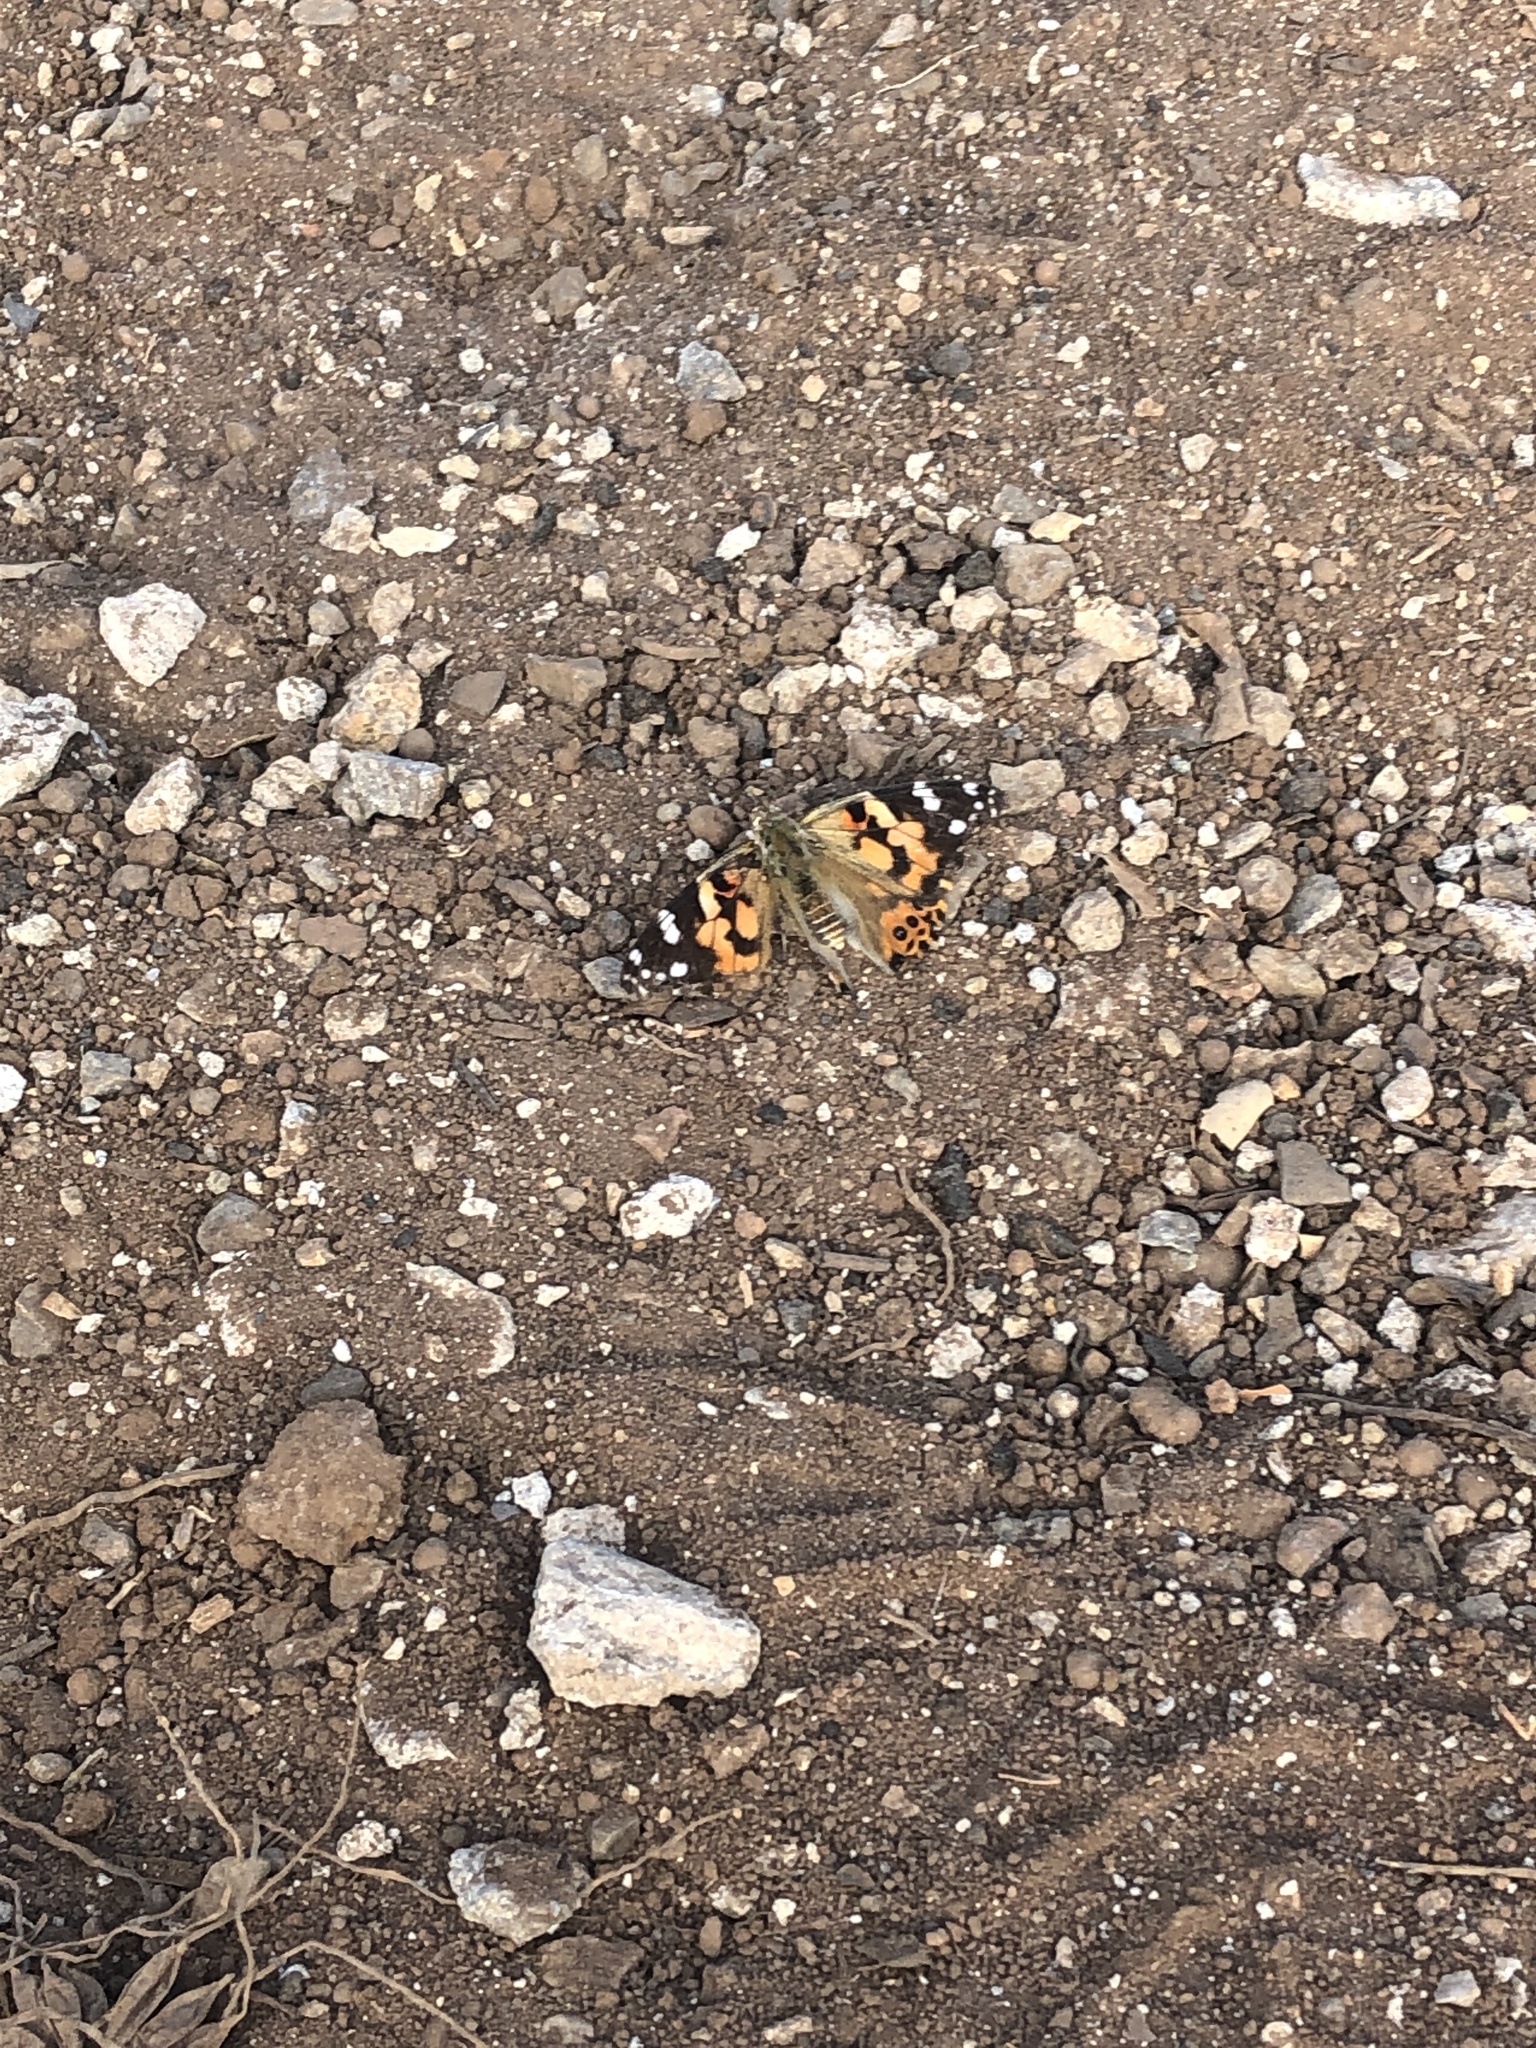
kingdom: Animalia
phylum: Arthropoda
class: Insecta
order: Lepidoptera
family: Nymphalidae
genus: Vanessa
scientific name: Vanessa cardui
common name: Painted lady
